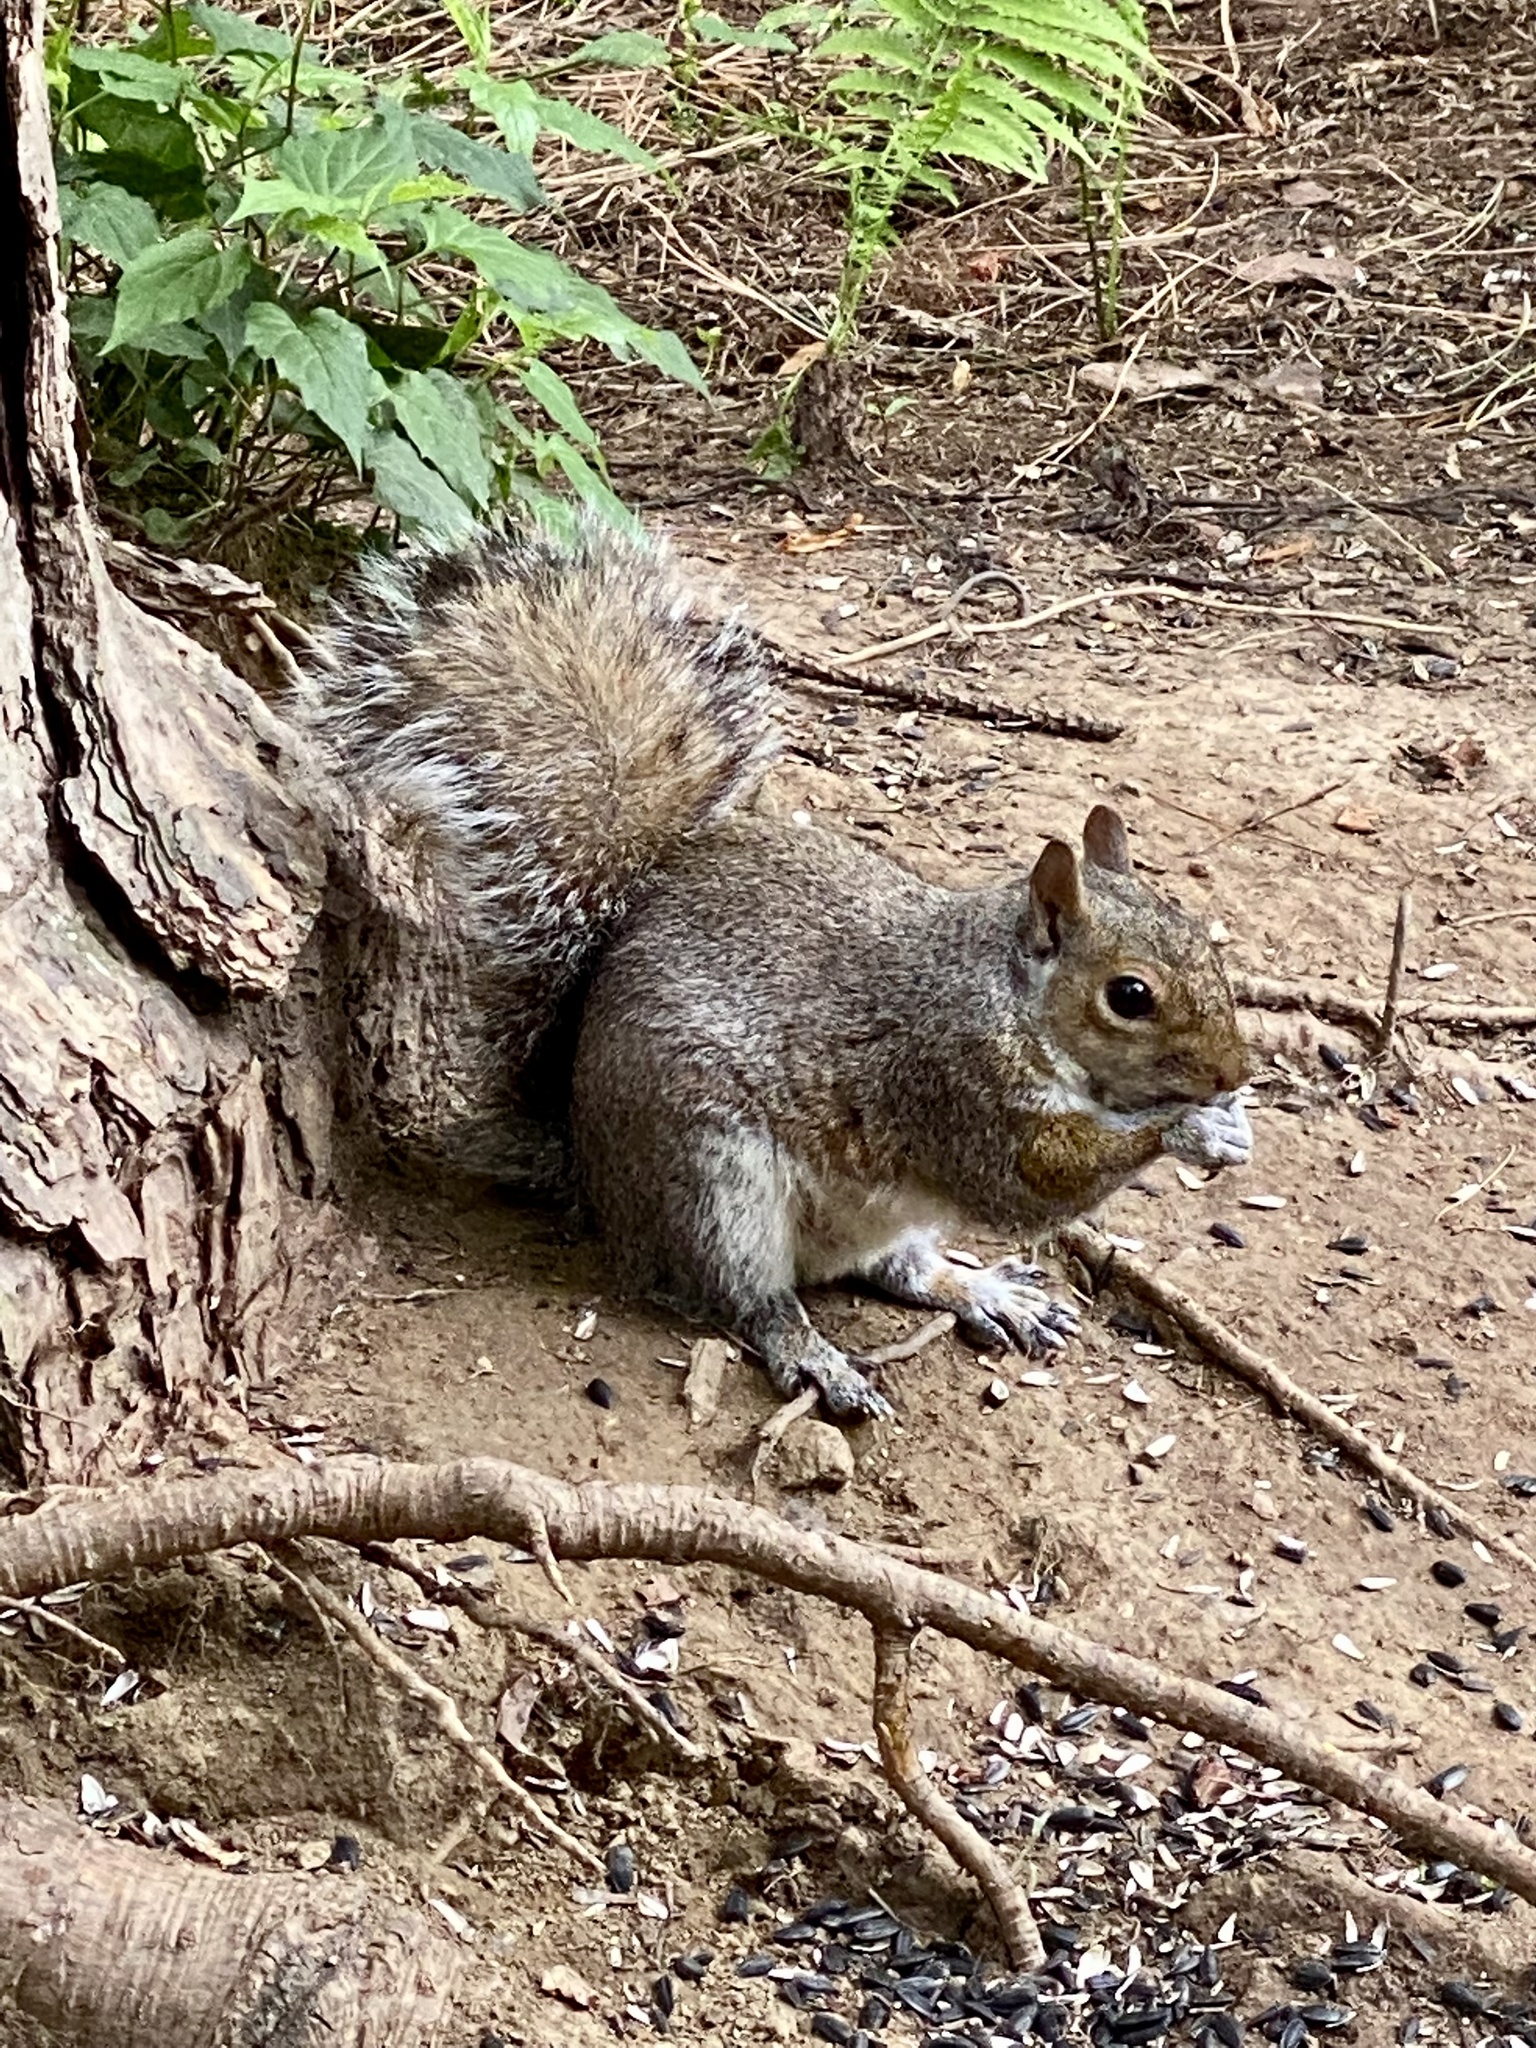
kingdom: Animalia
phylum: Chordata
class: Mammalia
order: Rodentia
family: Sciuridae
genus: Sciurus
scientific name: Sciurus carolinensis
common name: Eastern gray squirrel
